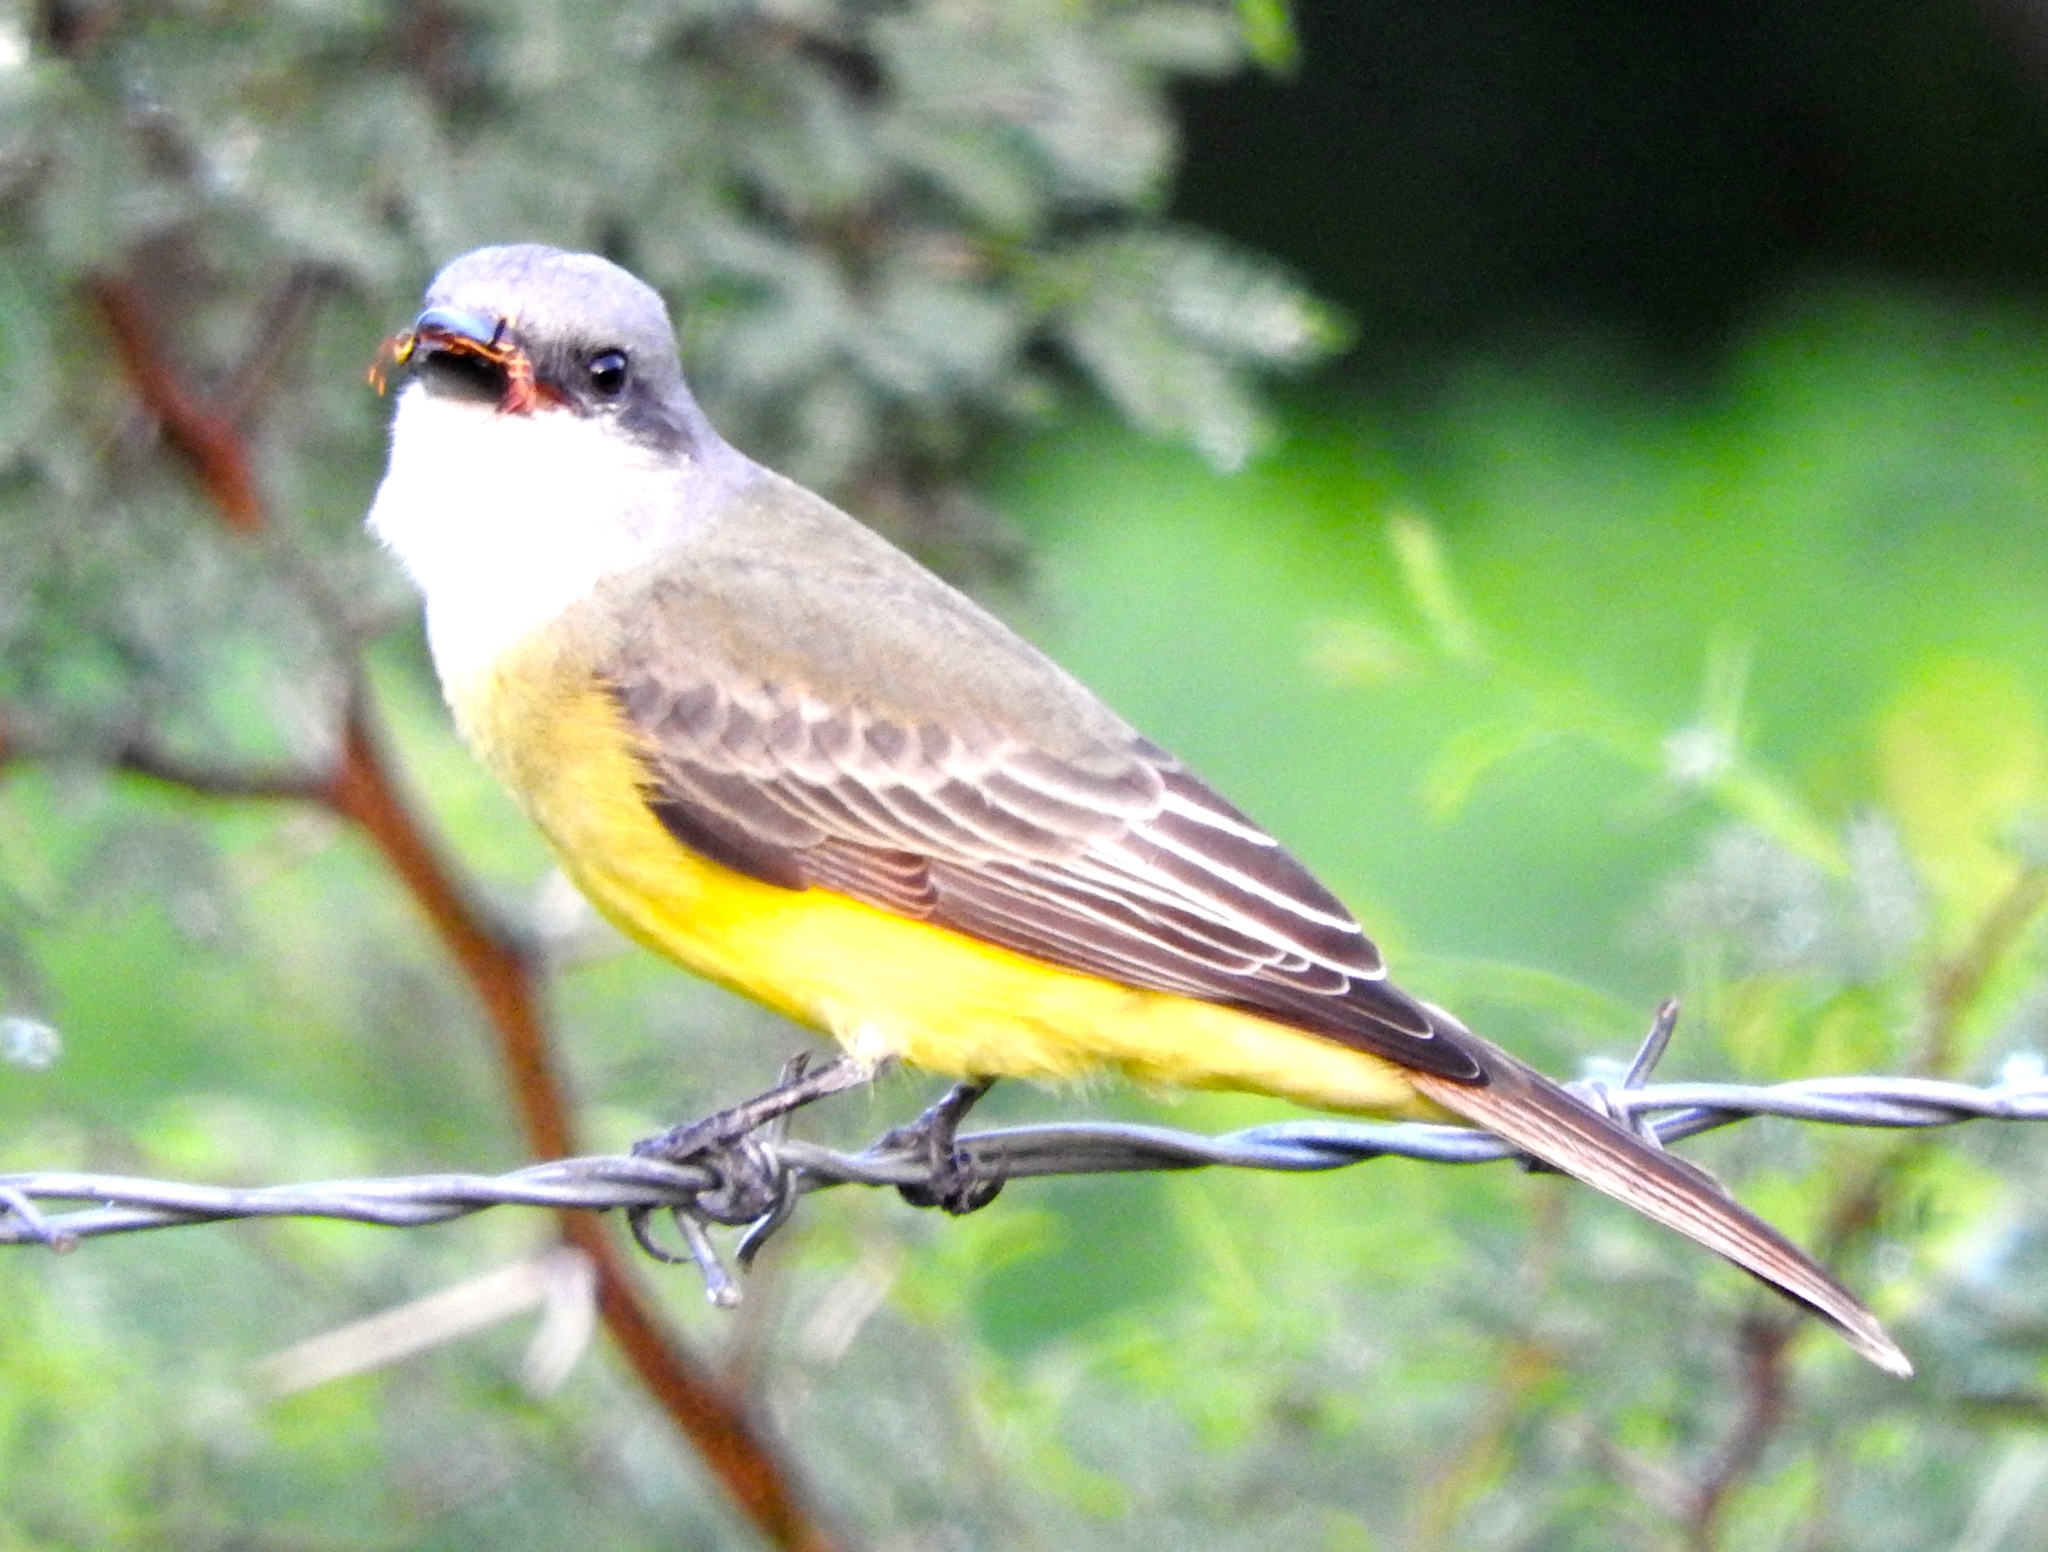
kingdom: Animalia
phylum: Chordata
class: Aves
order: Passeriformes
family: Tyrannidae
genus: Tyrannus
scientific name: Tyrannus melancholicus
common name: Tropical kingbird
